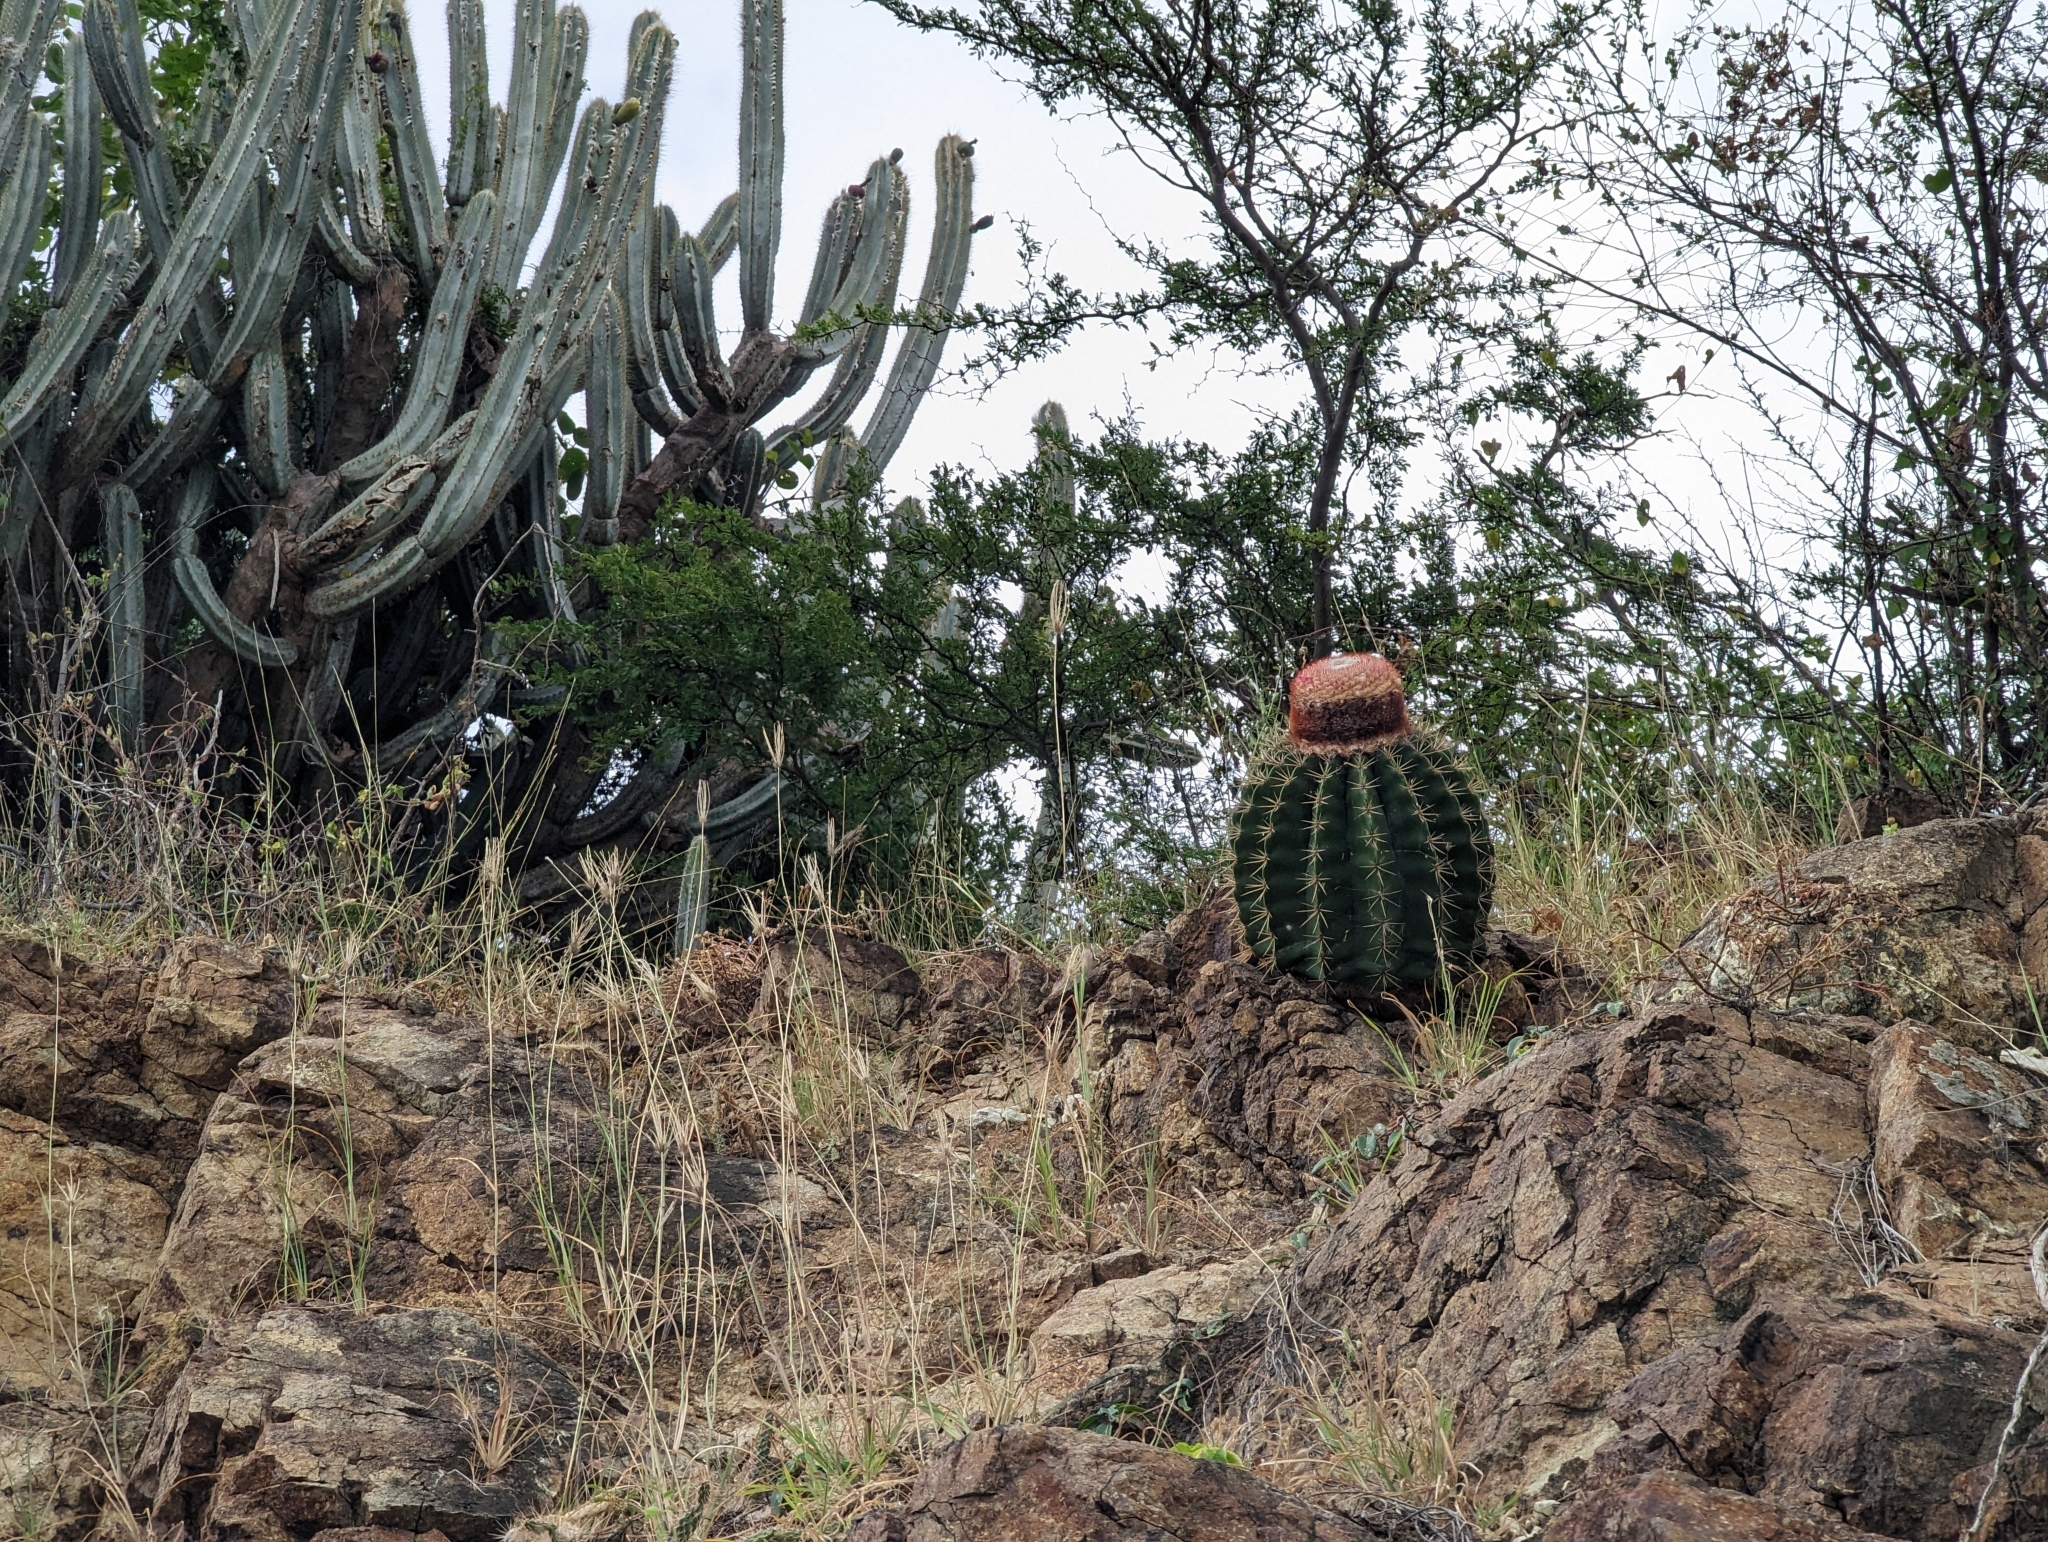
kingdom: Plantae
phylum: Tracheophyta
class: Magnoliopsida
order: Caryophyllales
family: Cactaceae
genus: Melocactus
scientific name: Melocactus intortus
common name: Barrel cactus
